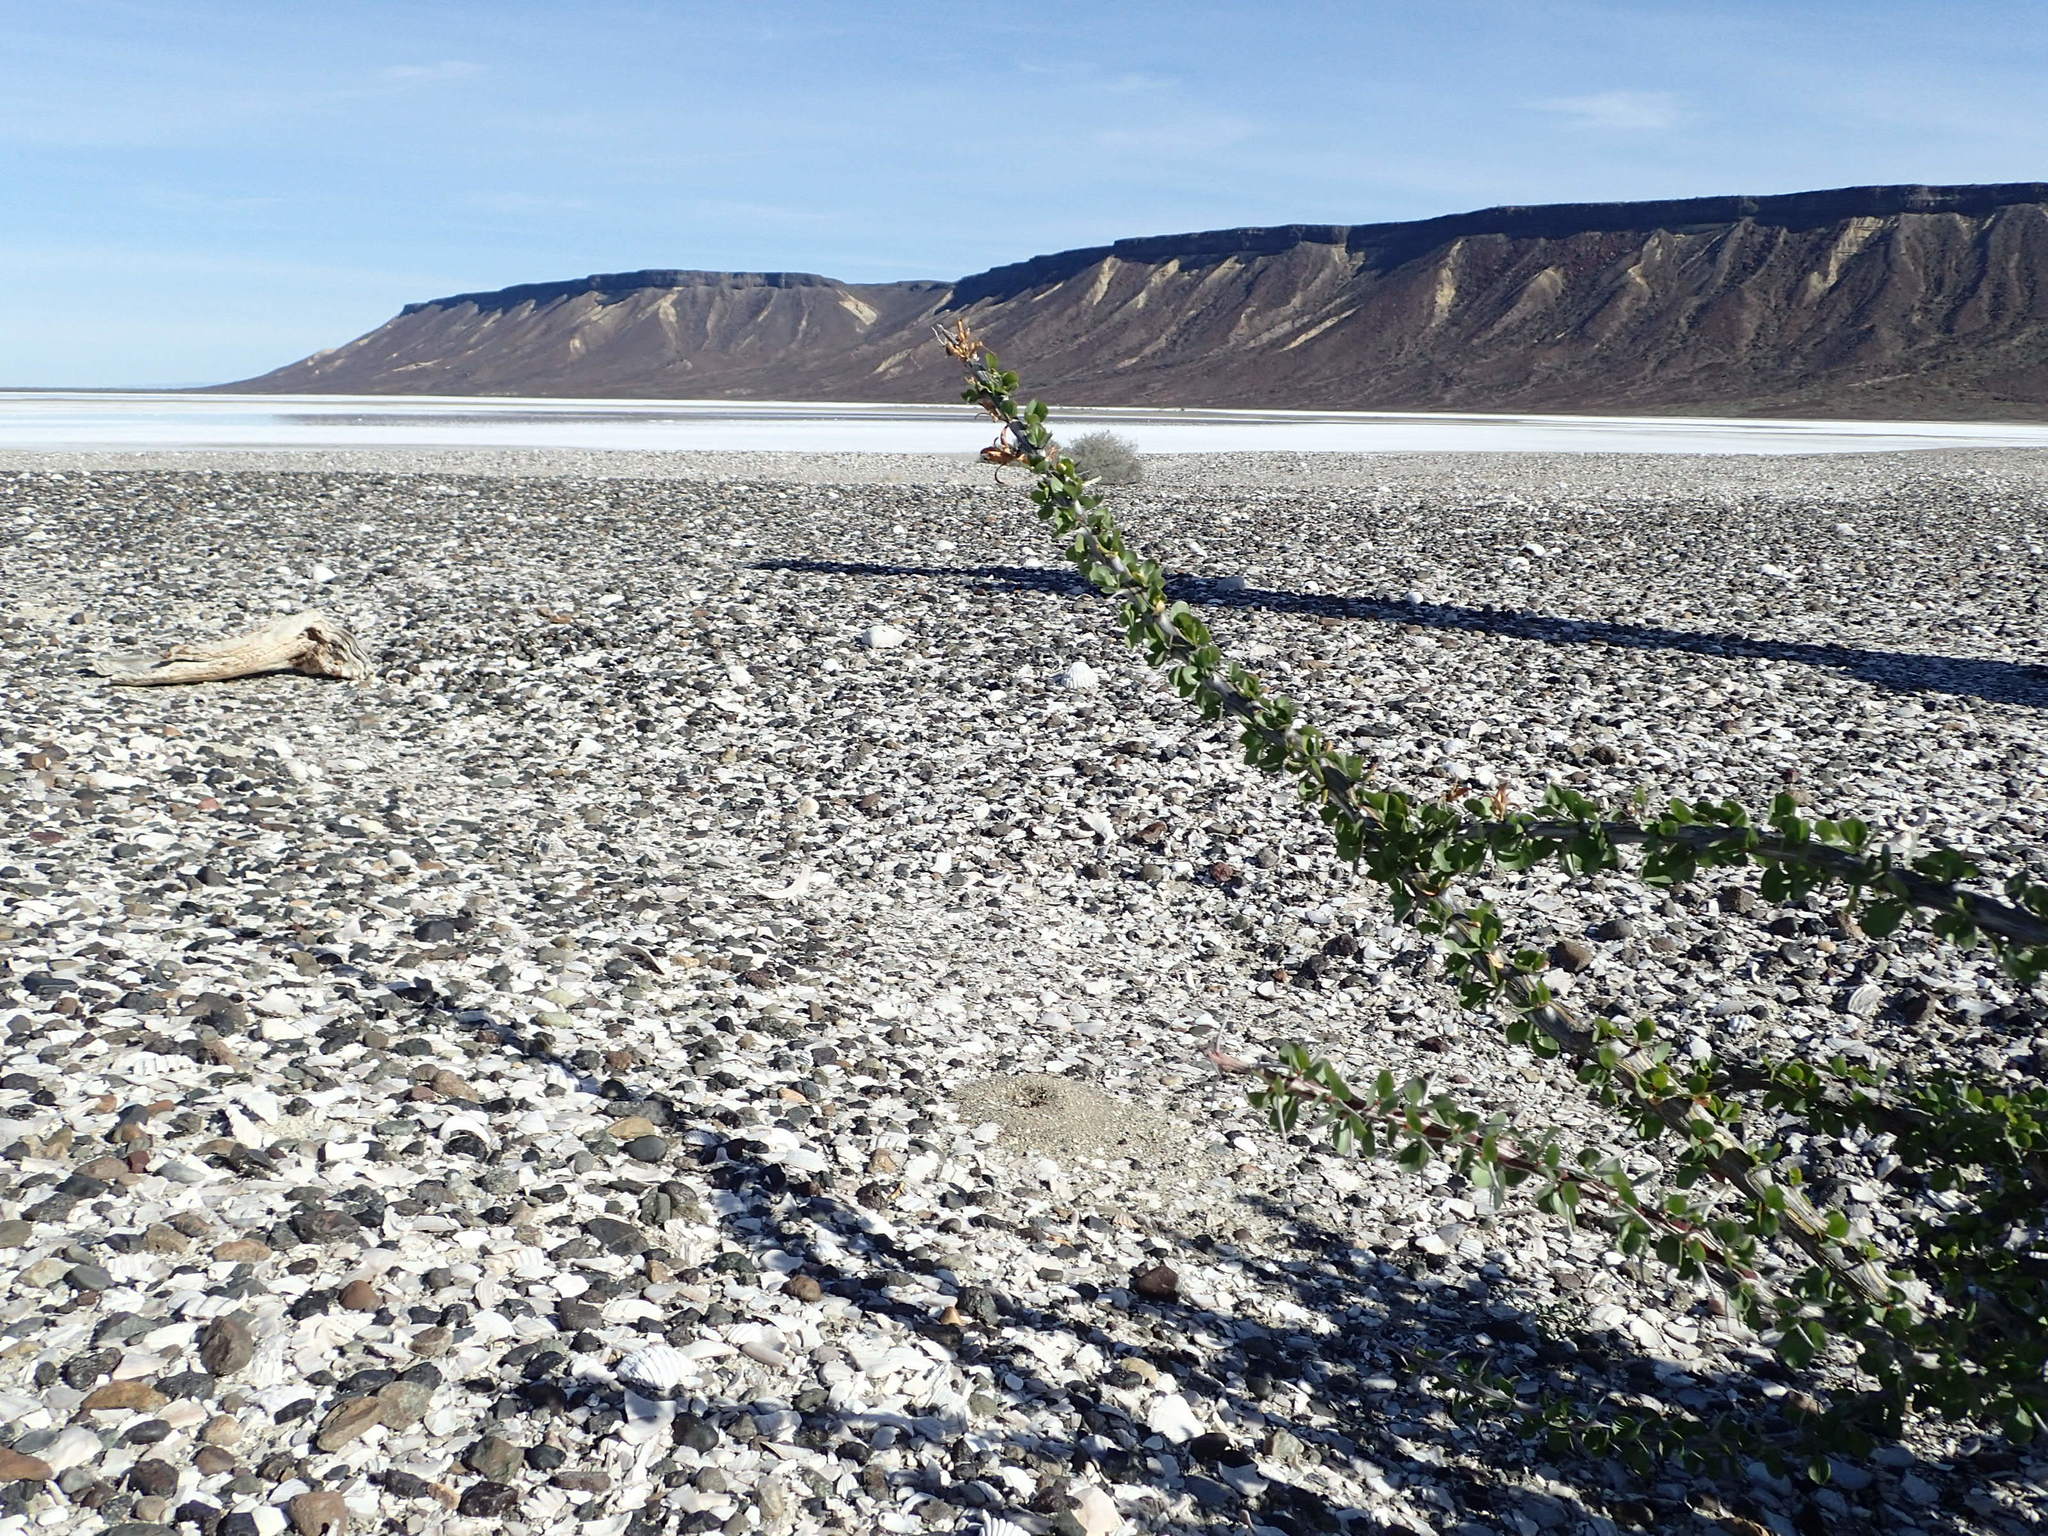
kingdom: Plantae
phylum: Tracheophyta
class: Magnoliopsida
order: Ericales
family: Fouquieriaceae
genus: Fouquieria
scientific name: Fouquieria diguetii
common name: Adam's tree
